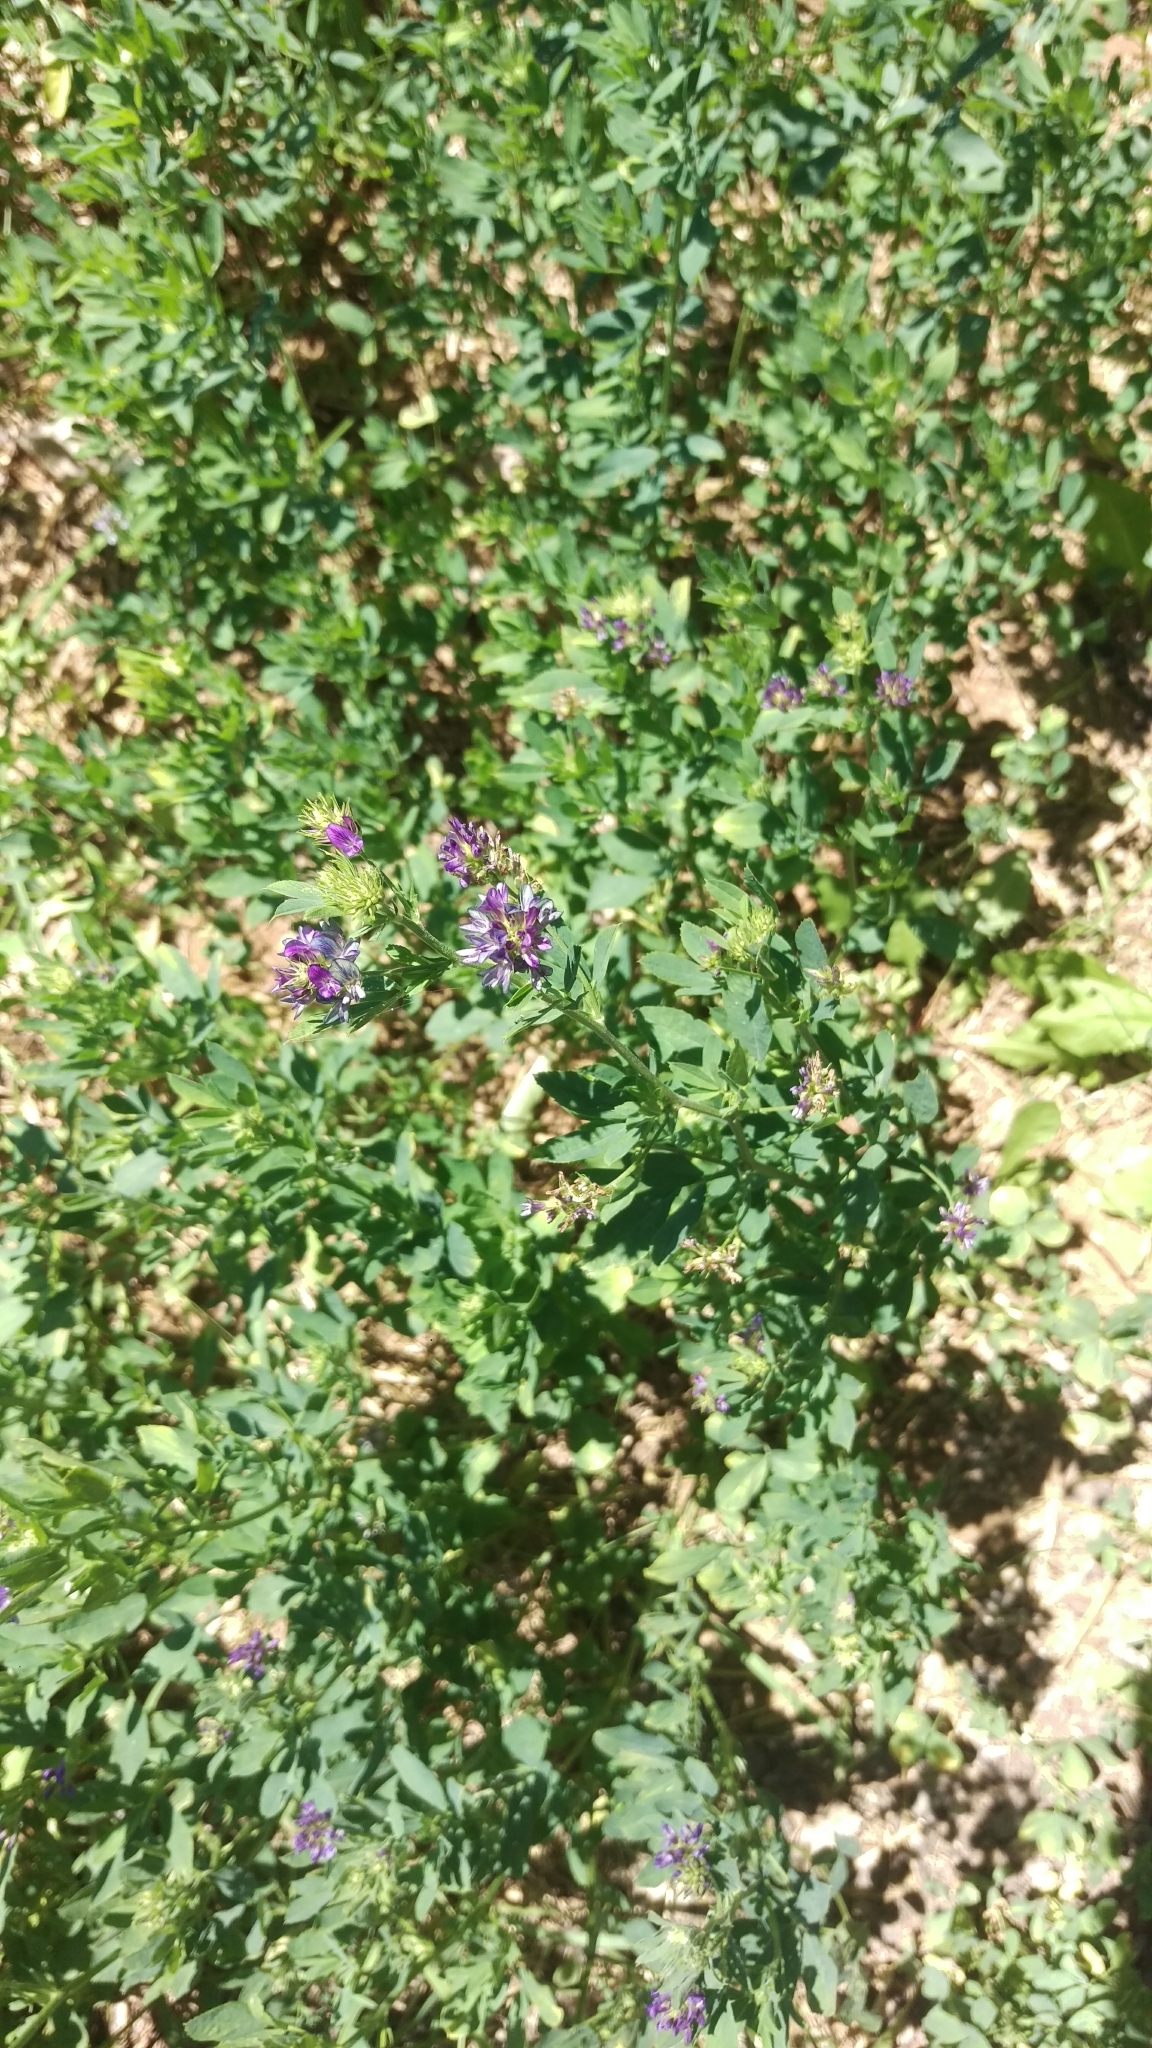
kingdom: Plantae
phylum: Tracheophyta
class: Magnoliopsida
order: Fabales
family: Fabaceae
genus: Medicago
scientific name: Medicago sativa
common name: Alfalfa
